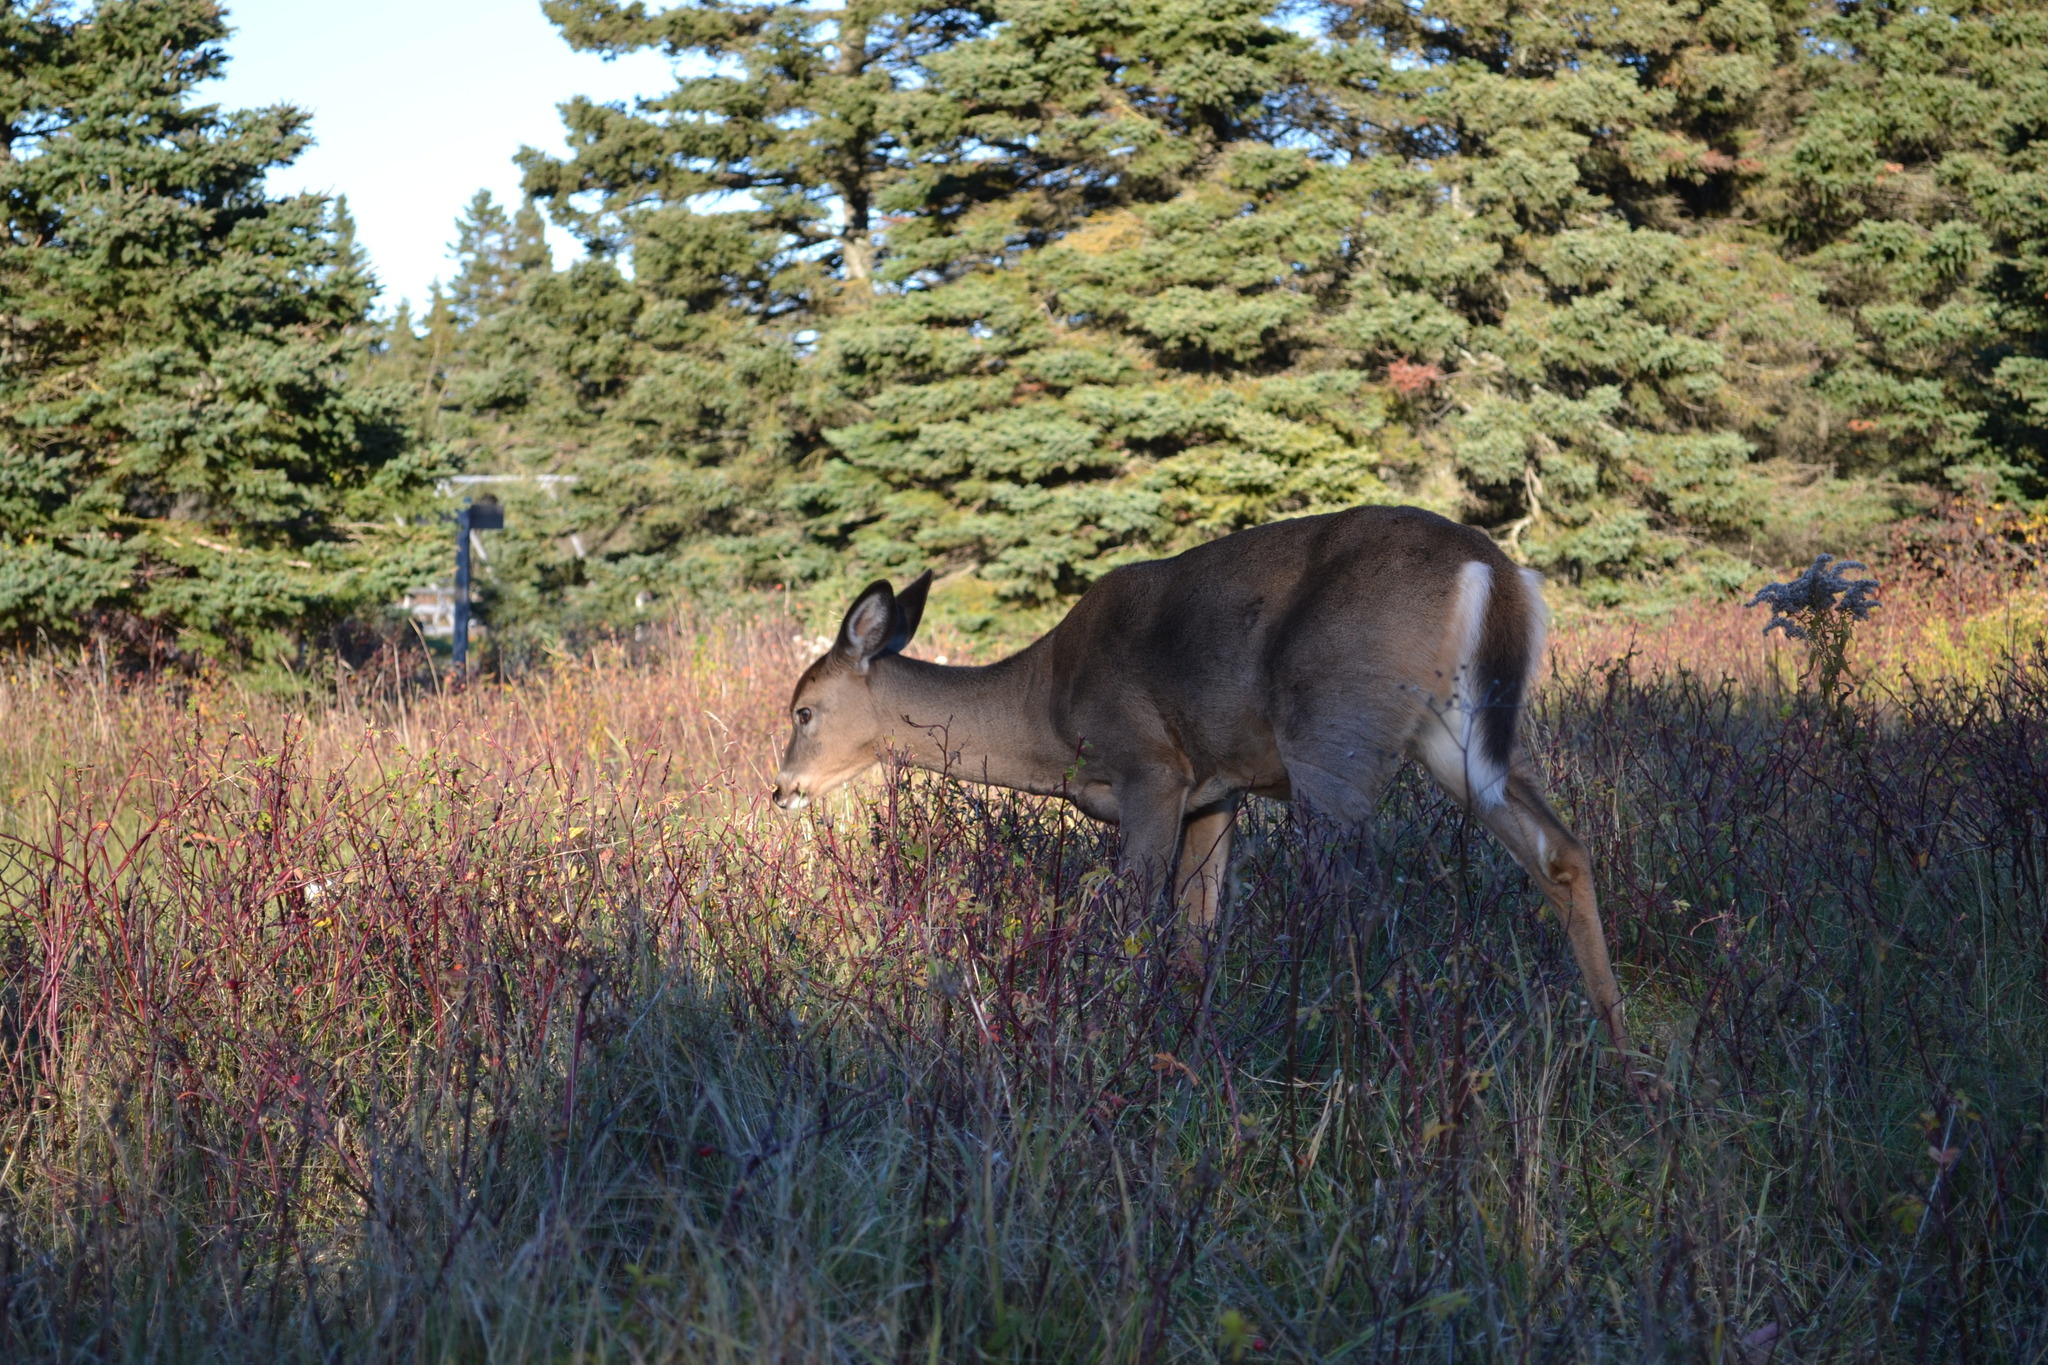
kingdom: Animalia
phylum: Chordata
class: Mammalia
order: Artiodactyla
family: Cervidae
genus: Odocoileus
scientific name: Odocoileus virginianus
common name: White-tailed deer
